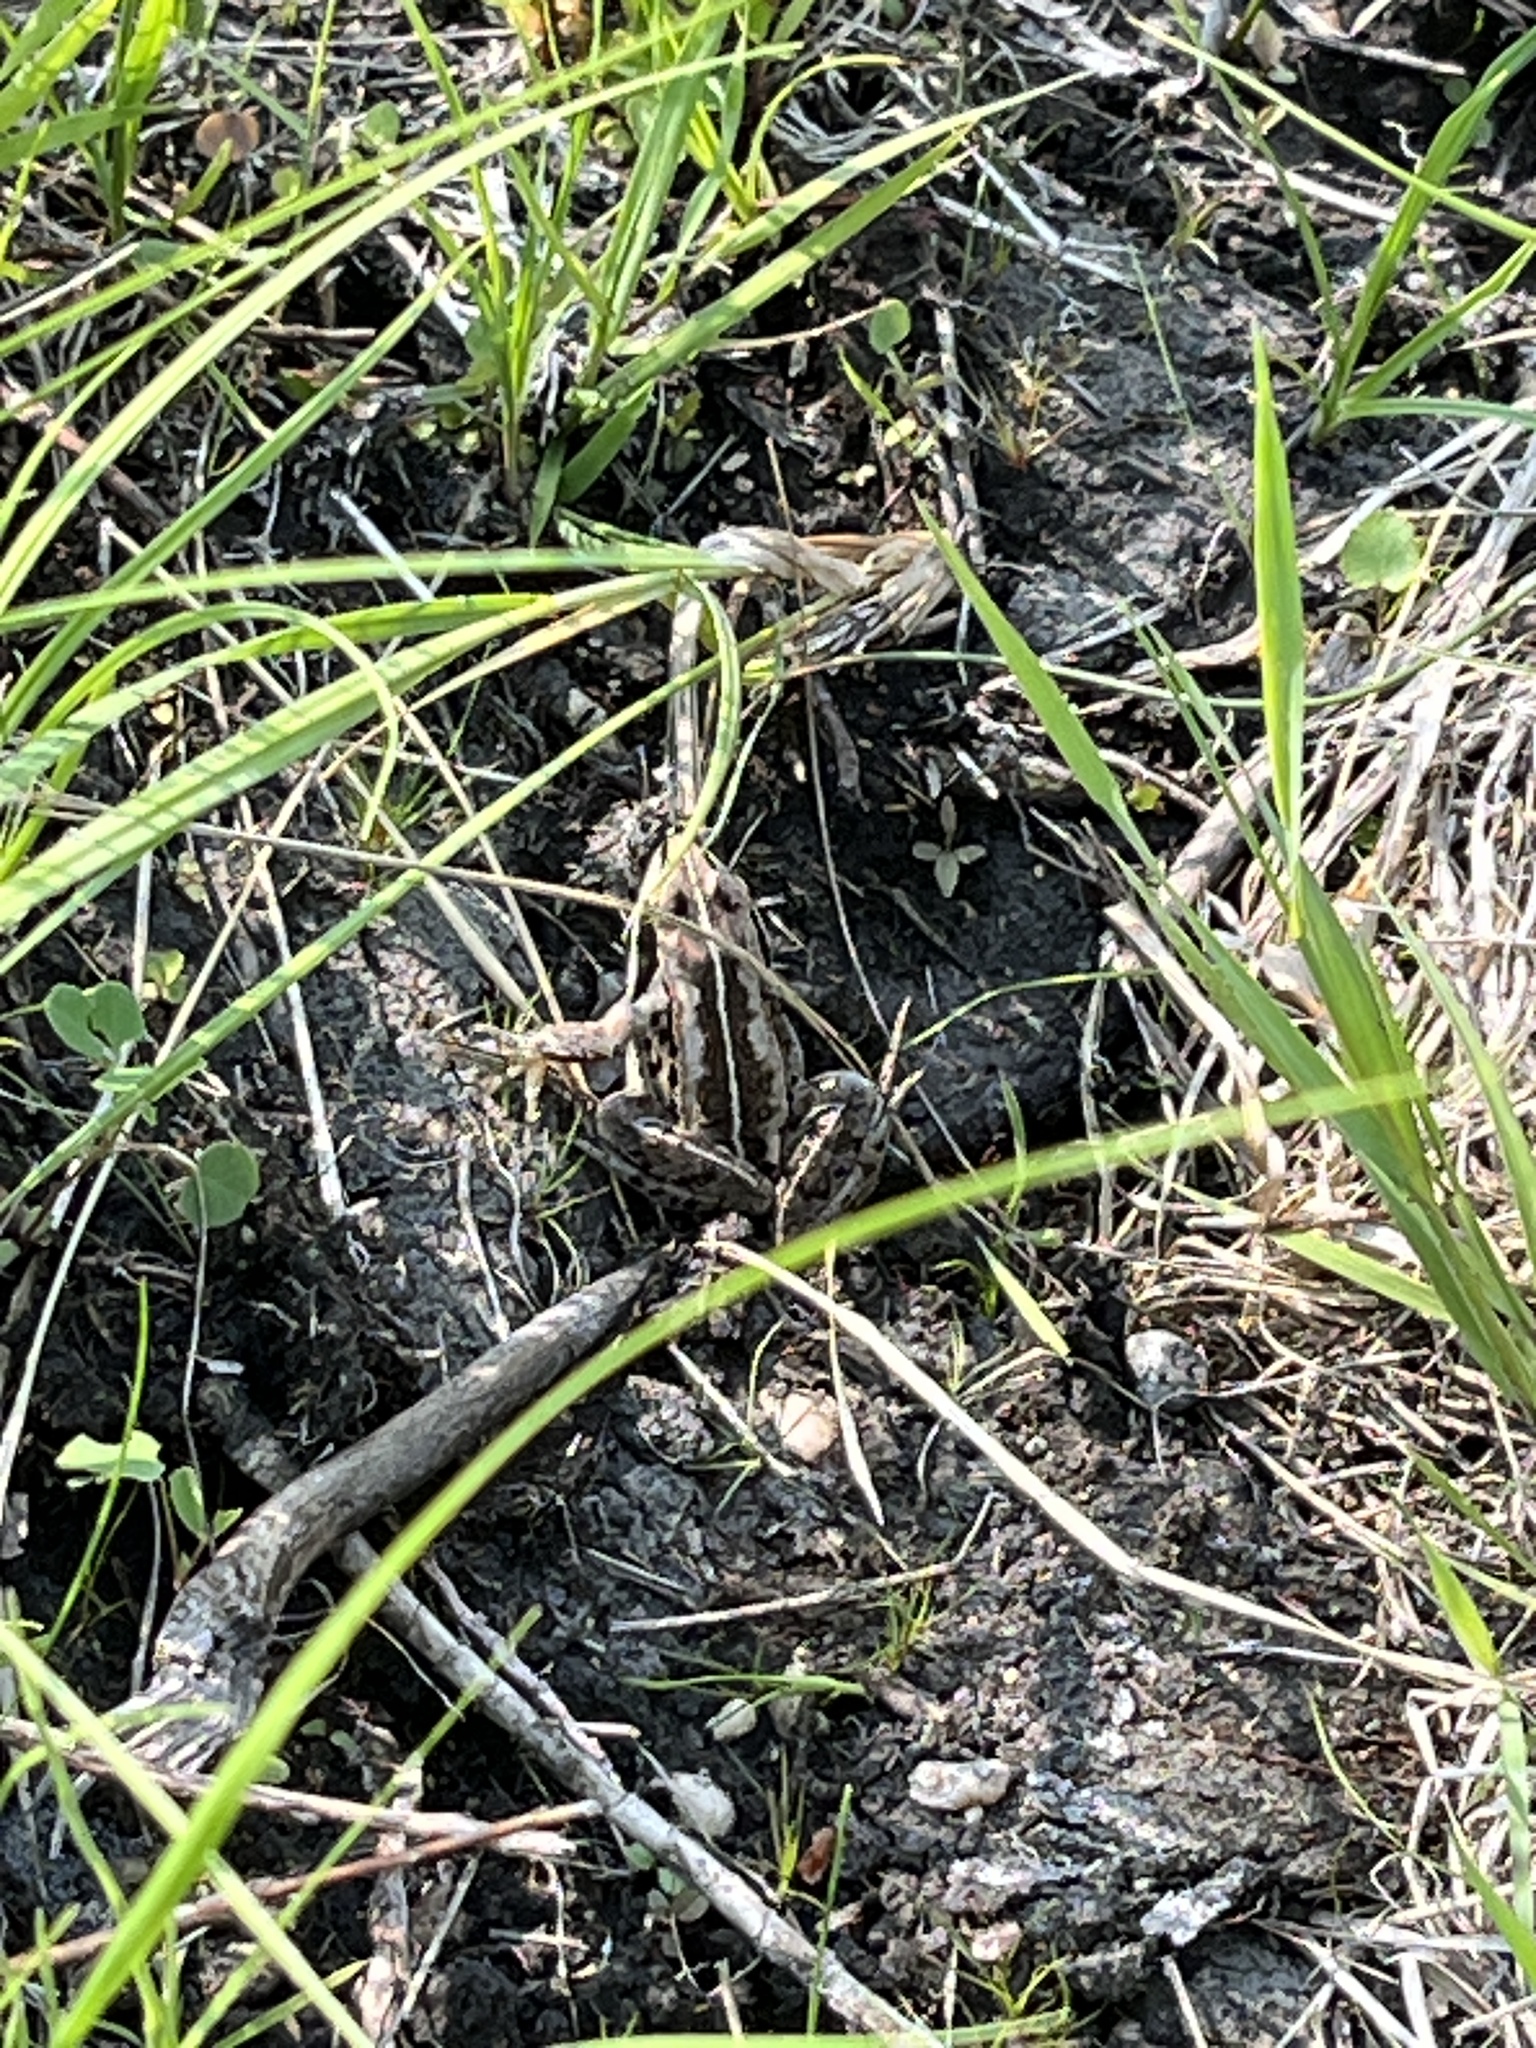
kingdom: Animalia
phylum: Chordata
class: Amphibia
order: Anura
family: Ranidae
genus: Lithobates
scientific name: Lithobates sylvaticus
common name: Wood frog
